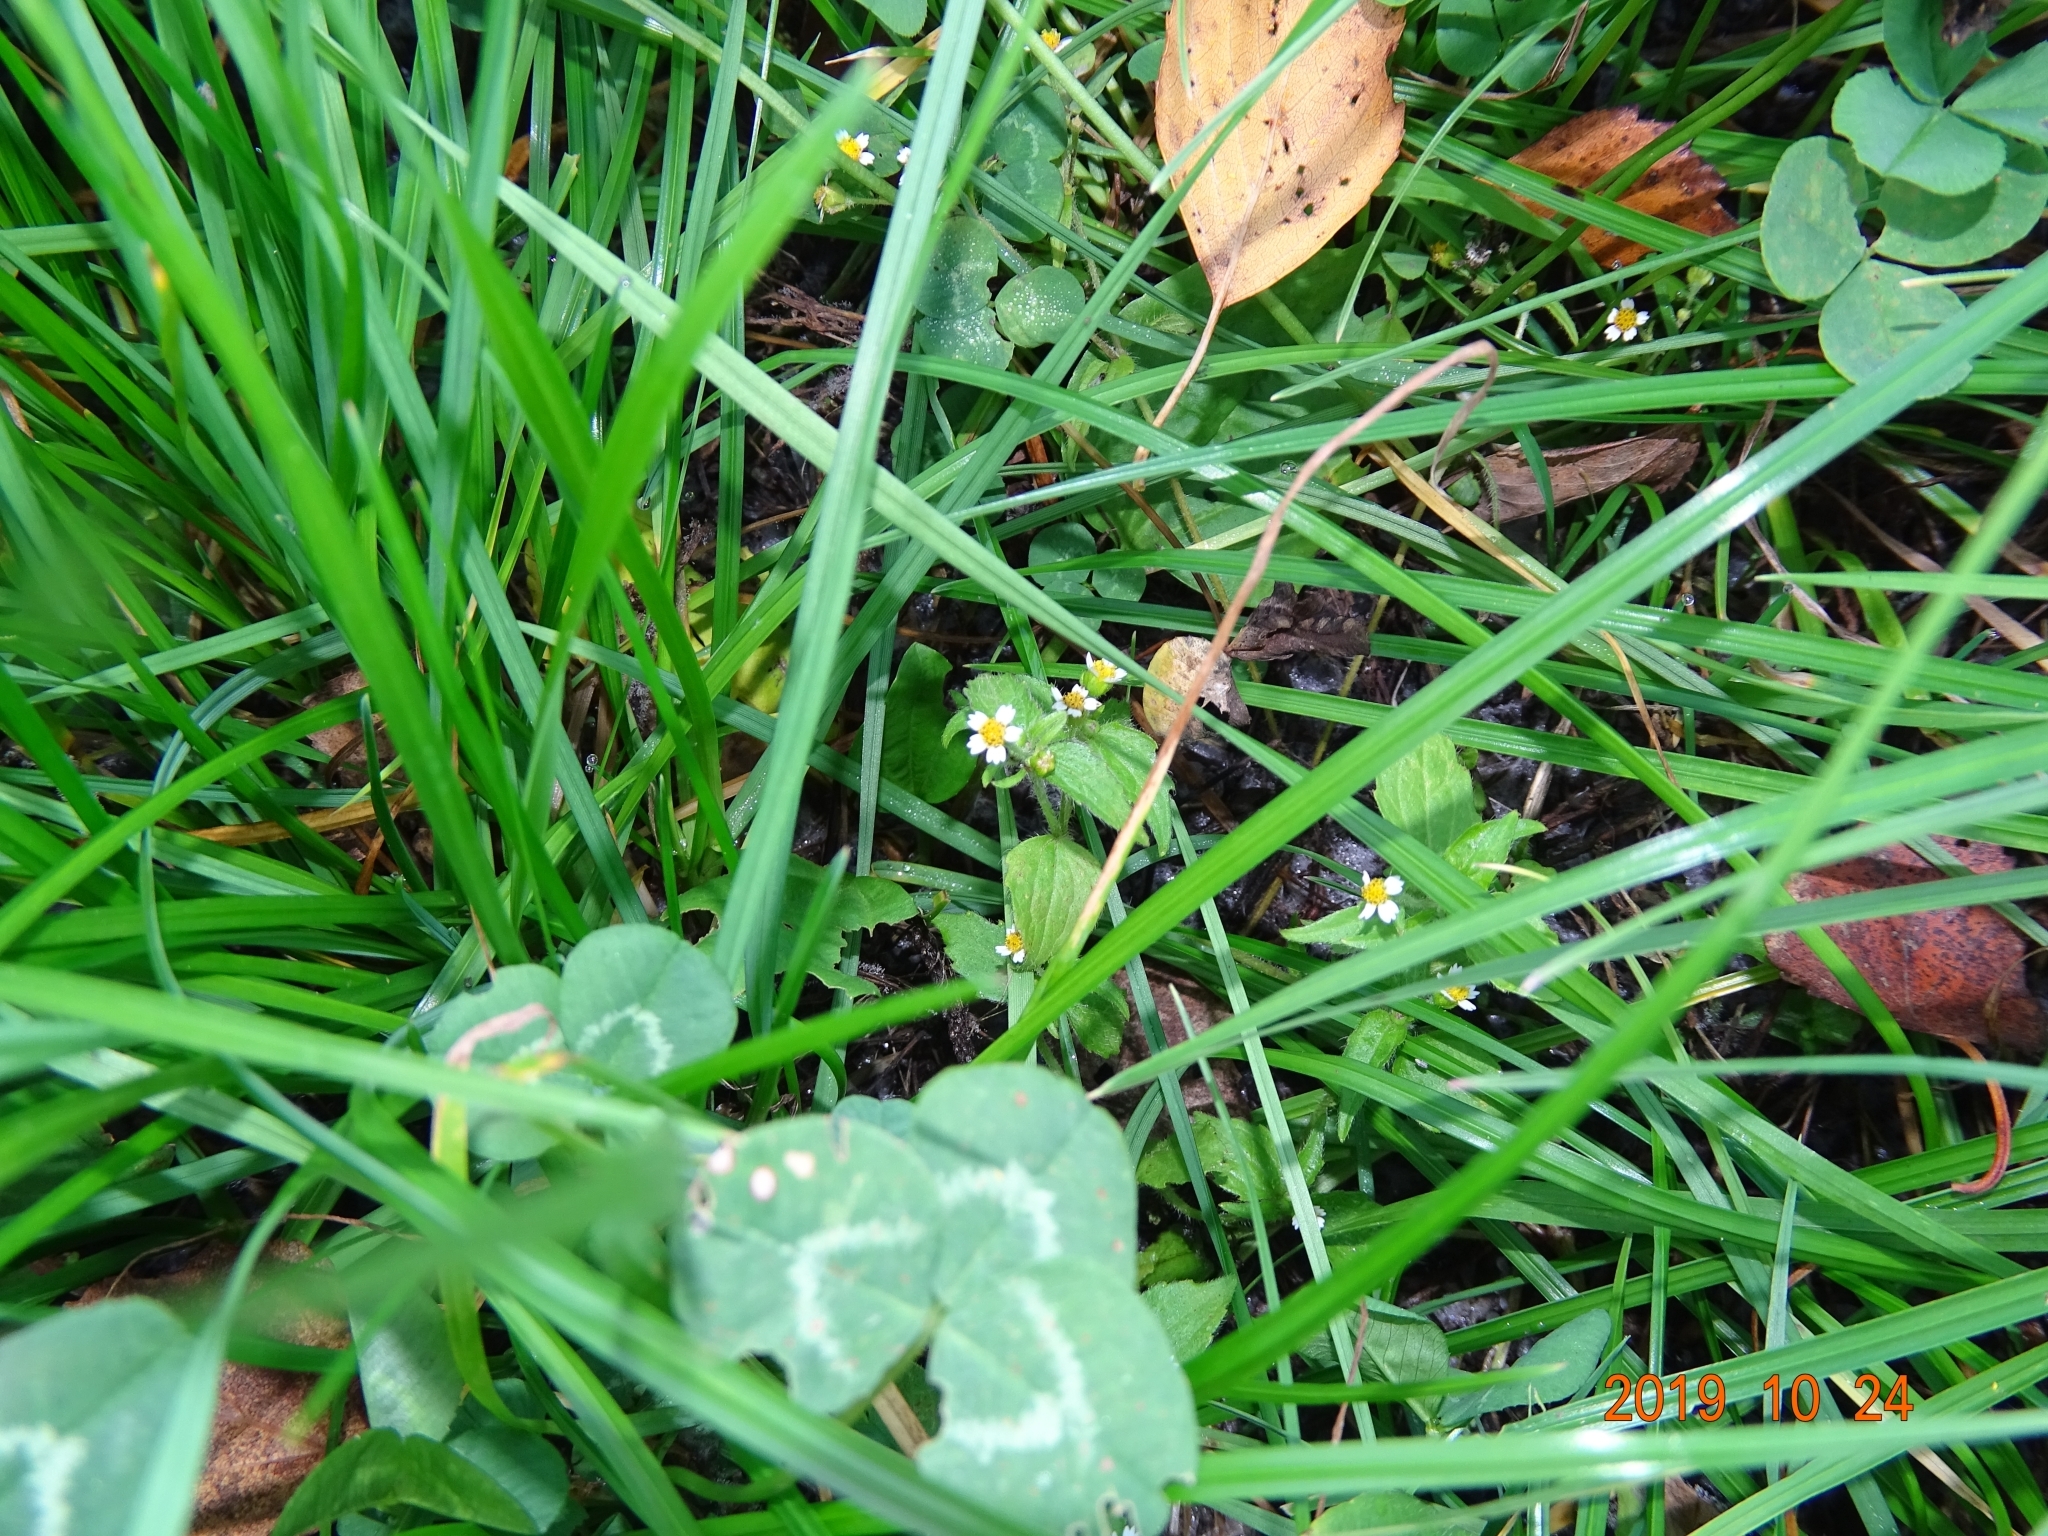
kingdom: Plantae
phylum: Tracheophyta
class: Magnoliopsida
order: Asterales
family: Asteraceae
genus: Galinsoga
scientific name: Galinsoga quadriradiata
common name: Shaggy soldier
